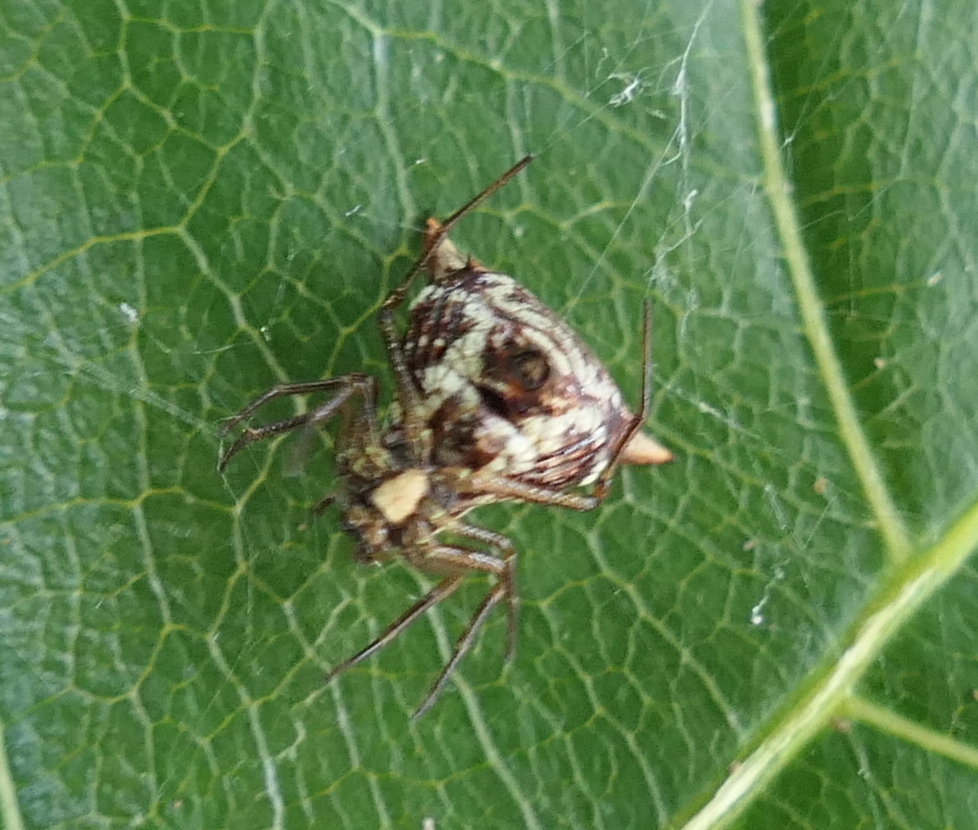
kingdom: Animalia
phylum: Arthropoda
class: Arachnida
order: Araneae
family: Araneidae
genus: Micrathena
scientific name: Micrathena evansi
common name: Orb weavers
